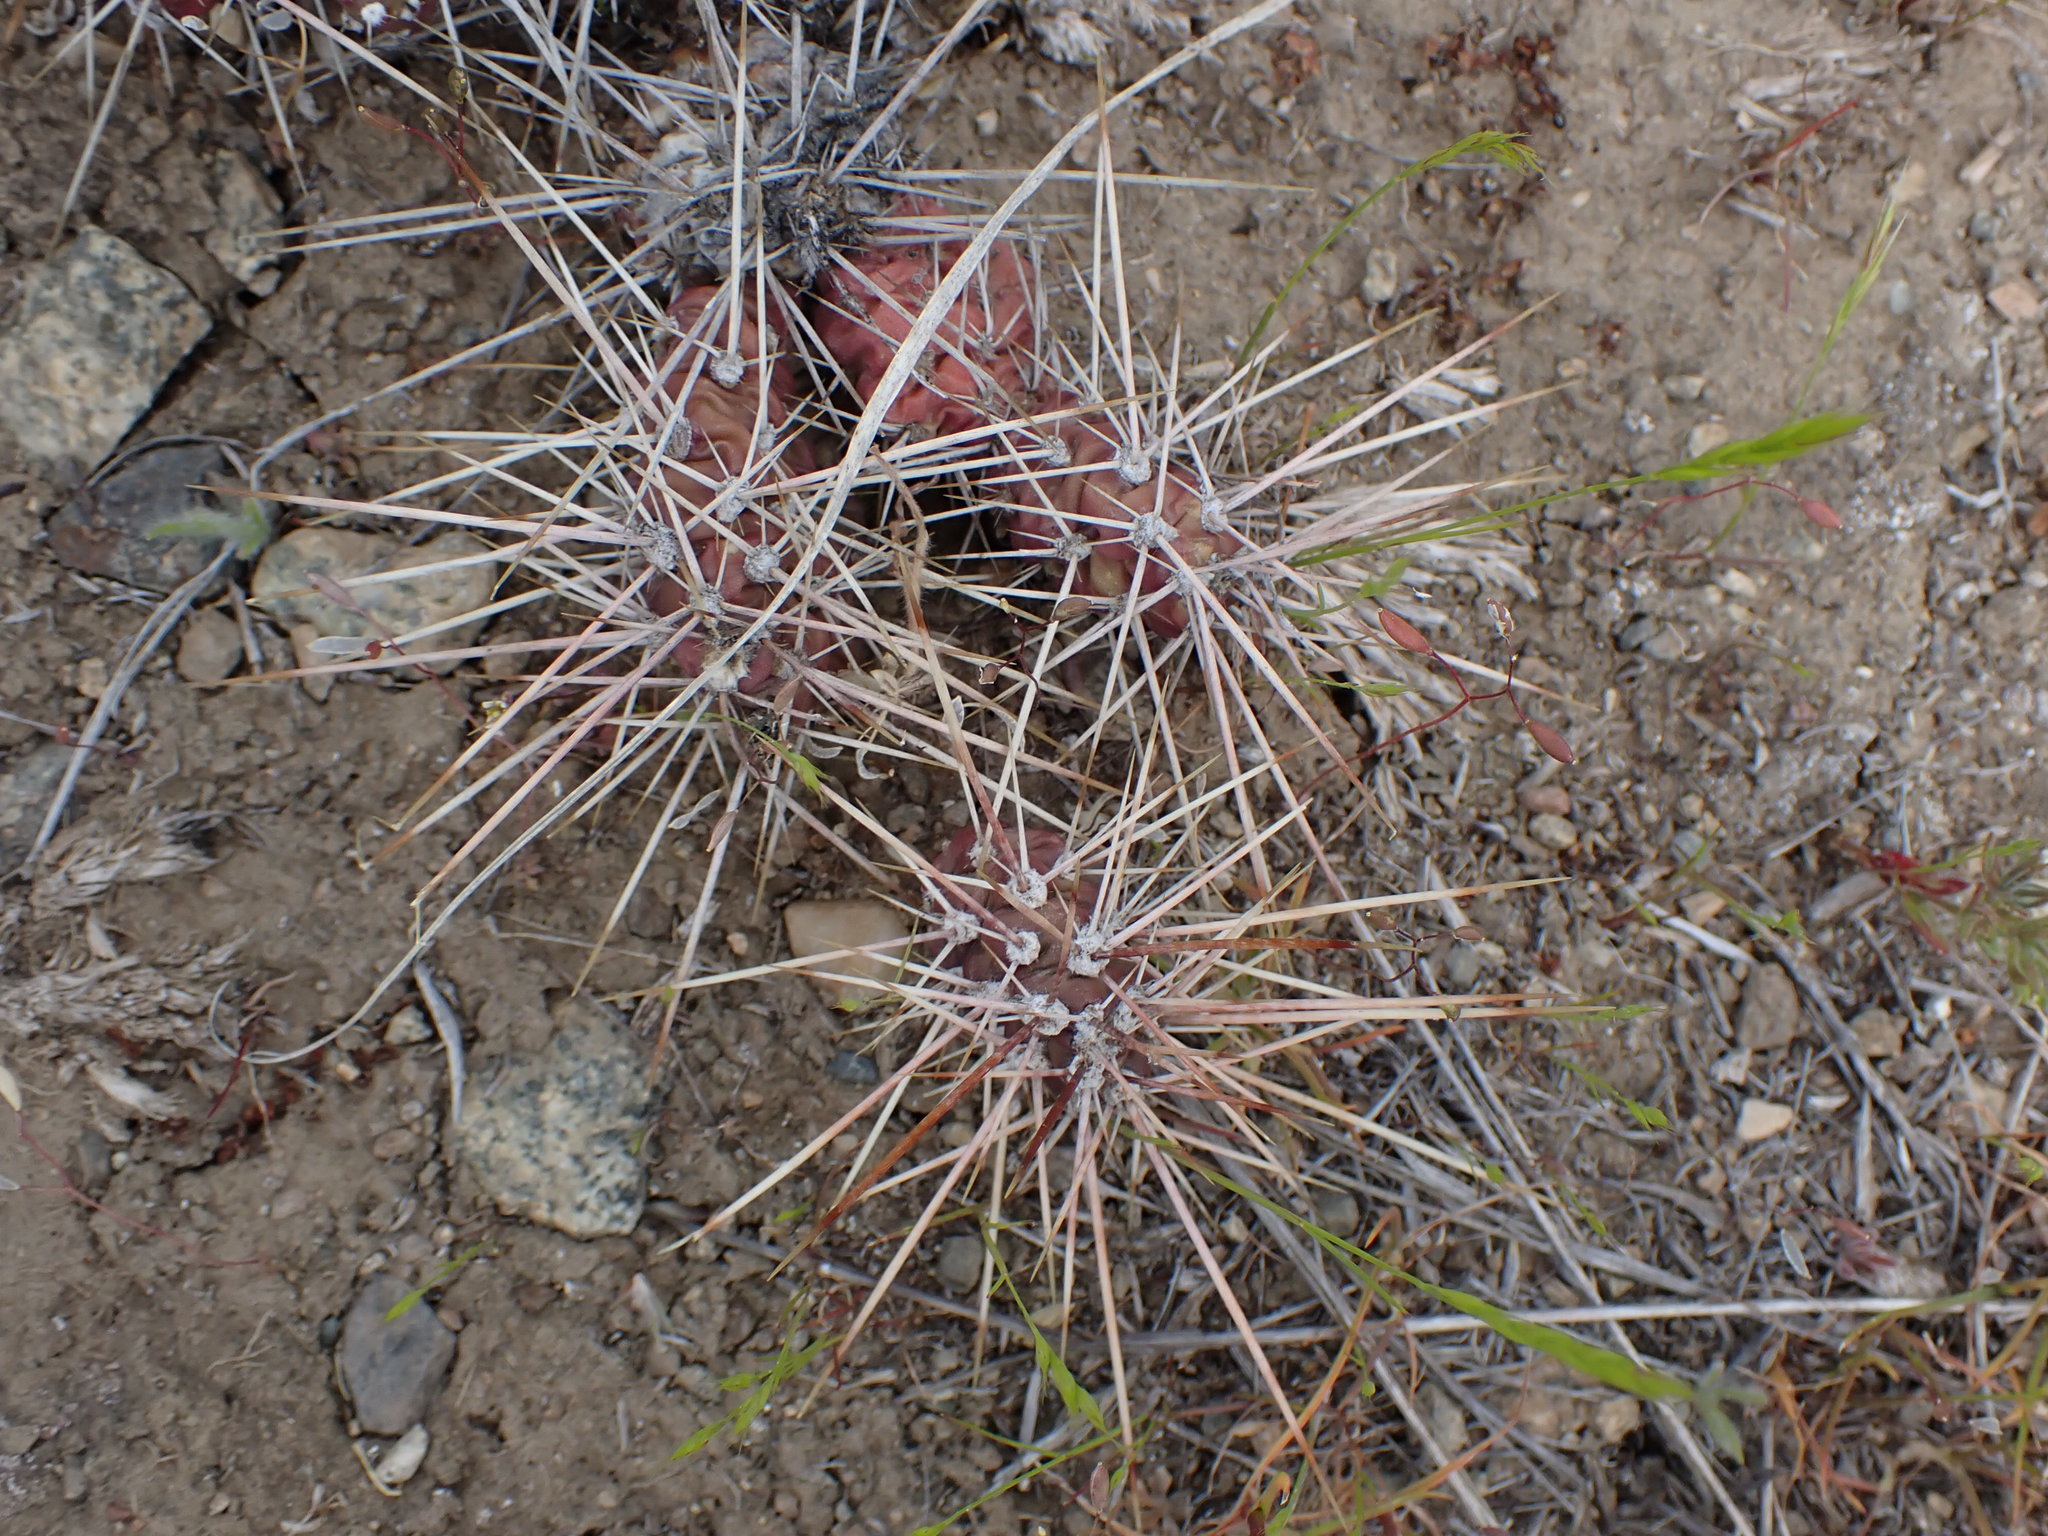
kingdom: Plantae
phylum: Tracheophyta
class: Magnoliopsida
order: Caryophyllales
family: Cactaceae
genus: Opuntia
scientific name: Opuntia fragilis
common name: Brittle cactus
